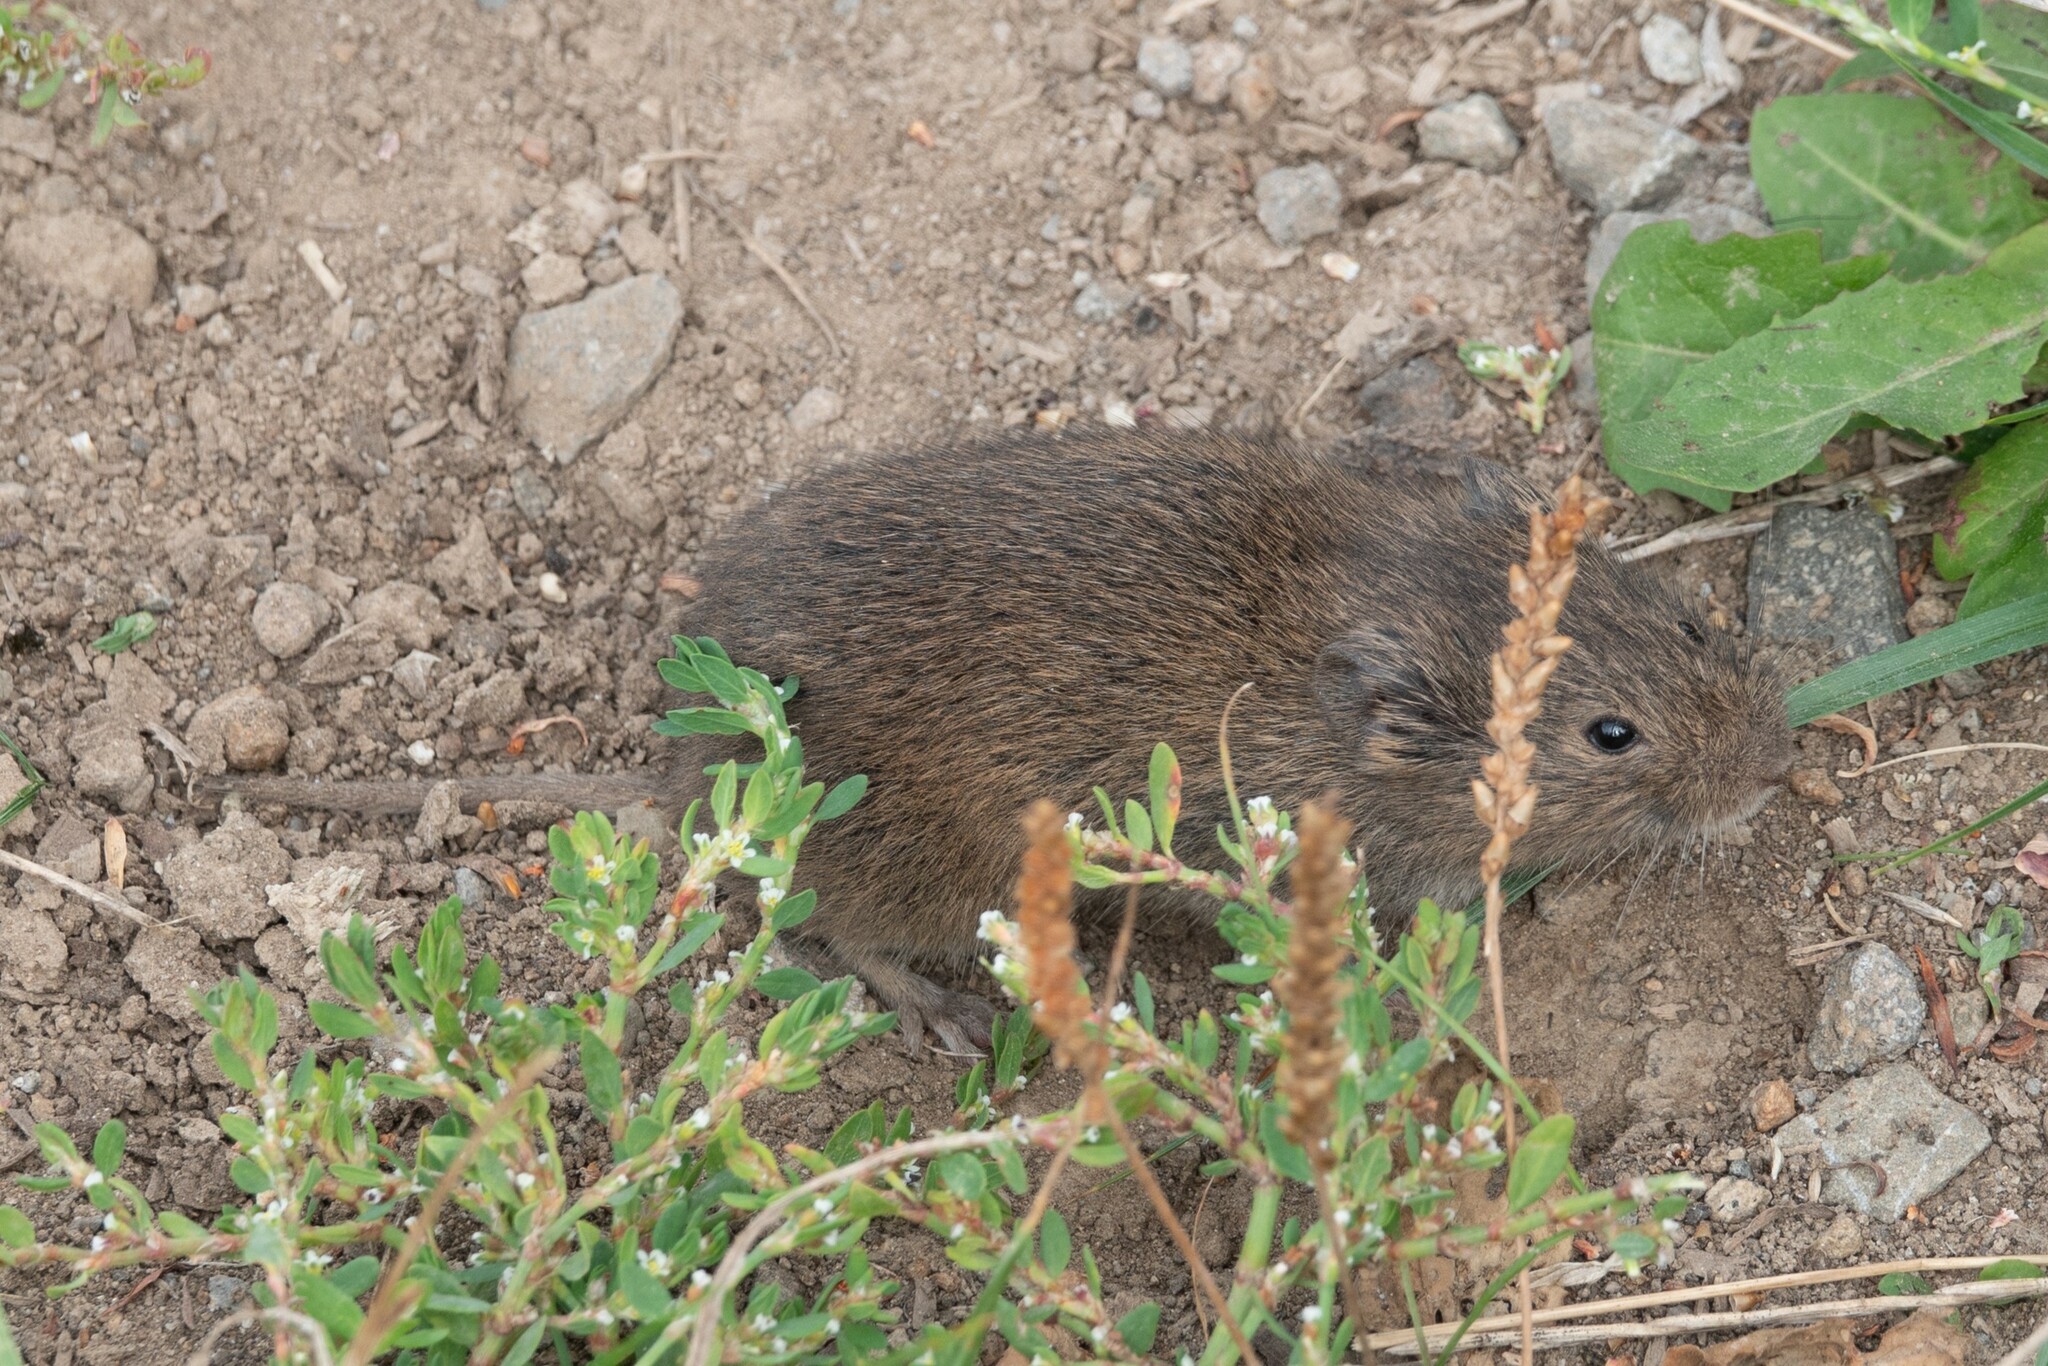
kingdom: Animalia
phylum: Chordata
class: Mammalia
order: Rodentia
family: Cricetidae
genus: Microtus
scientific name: Microtus agrestis
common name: Field vole
